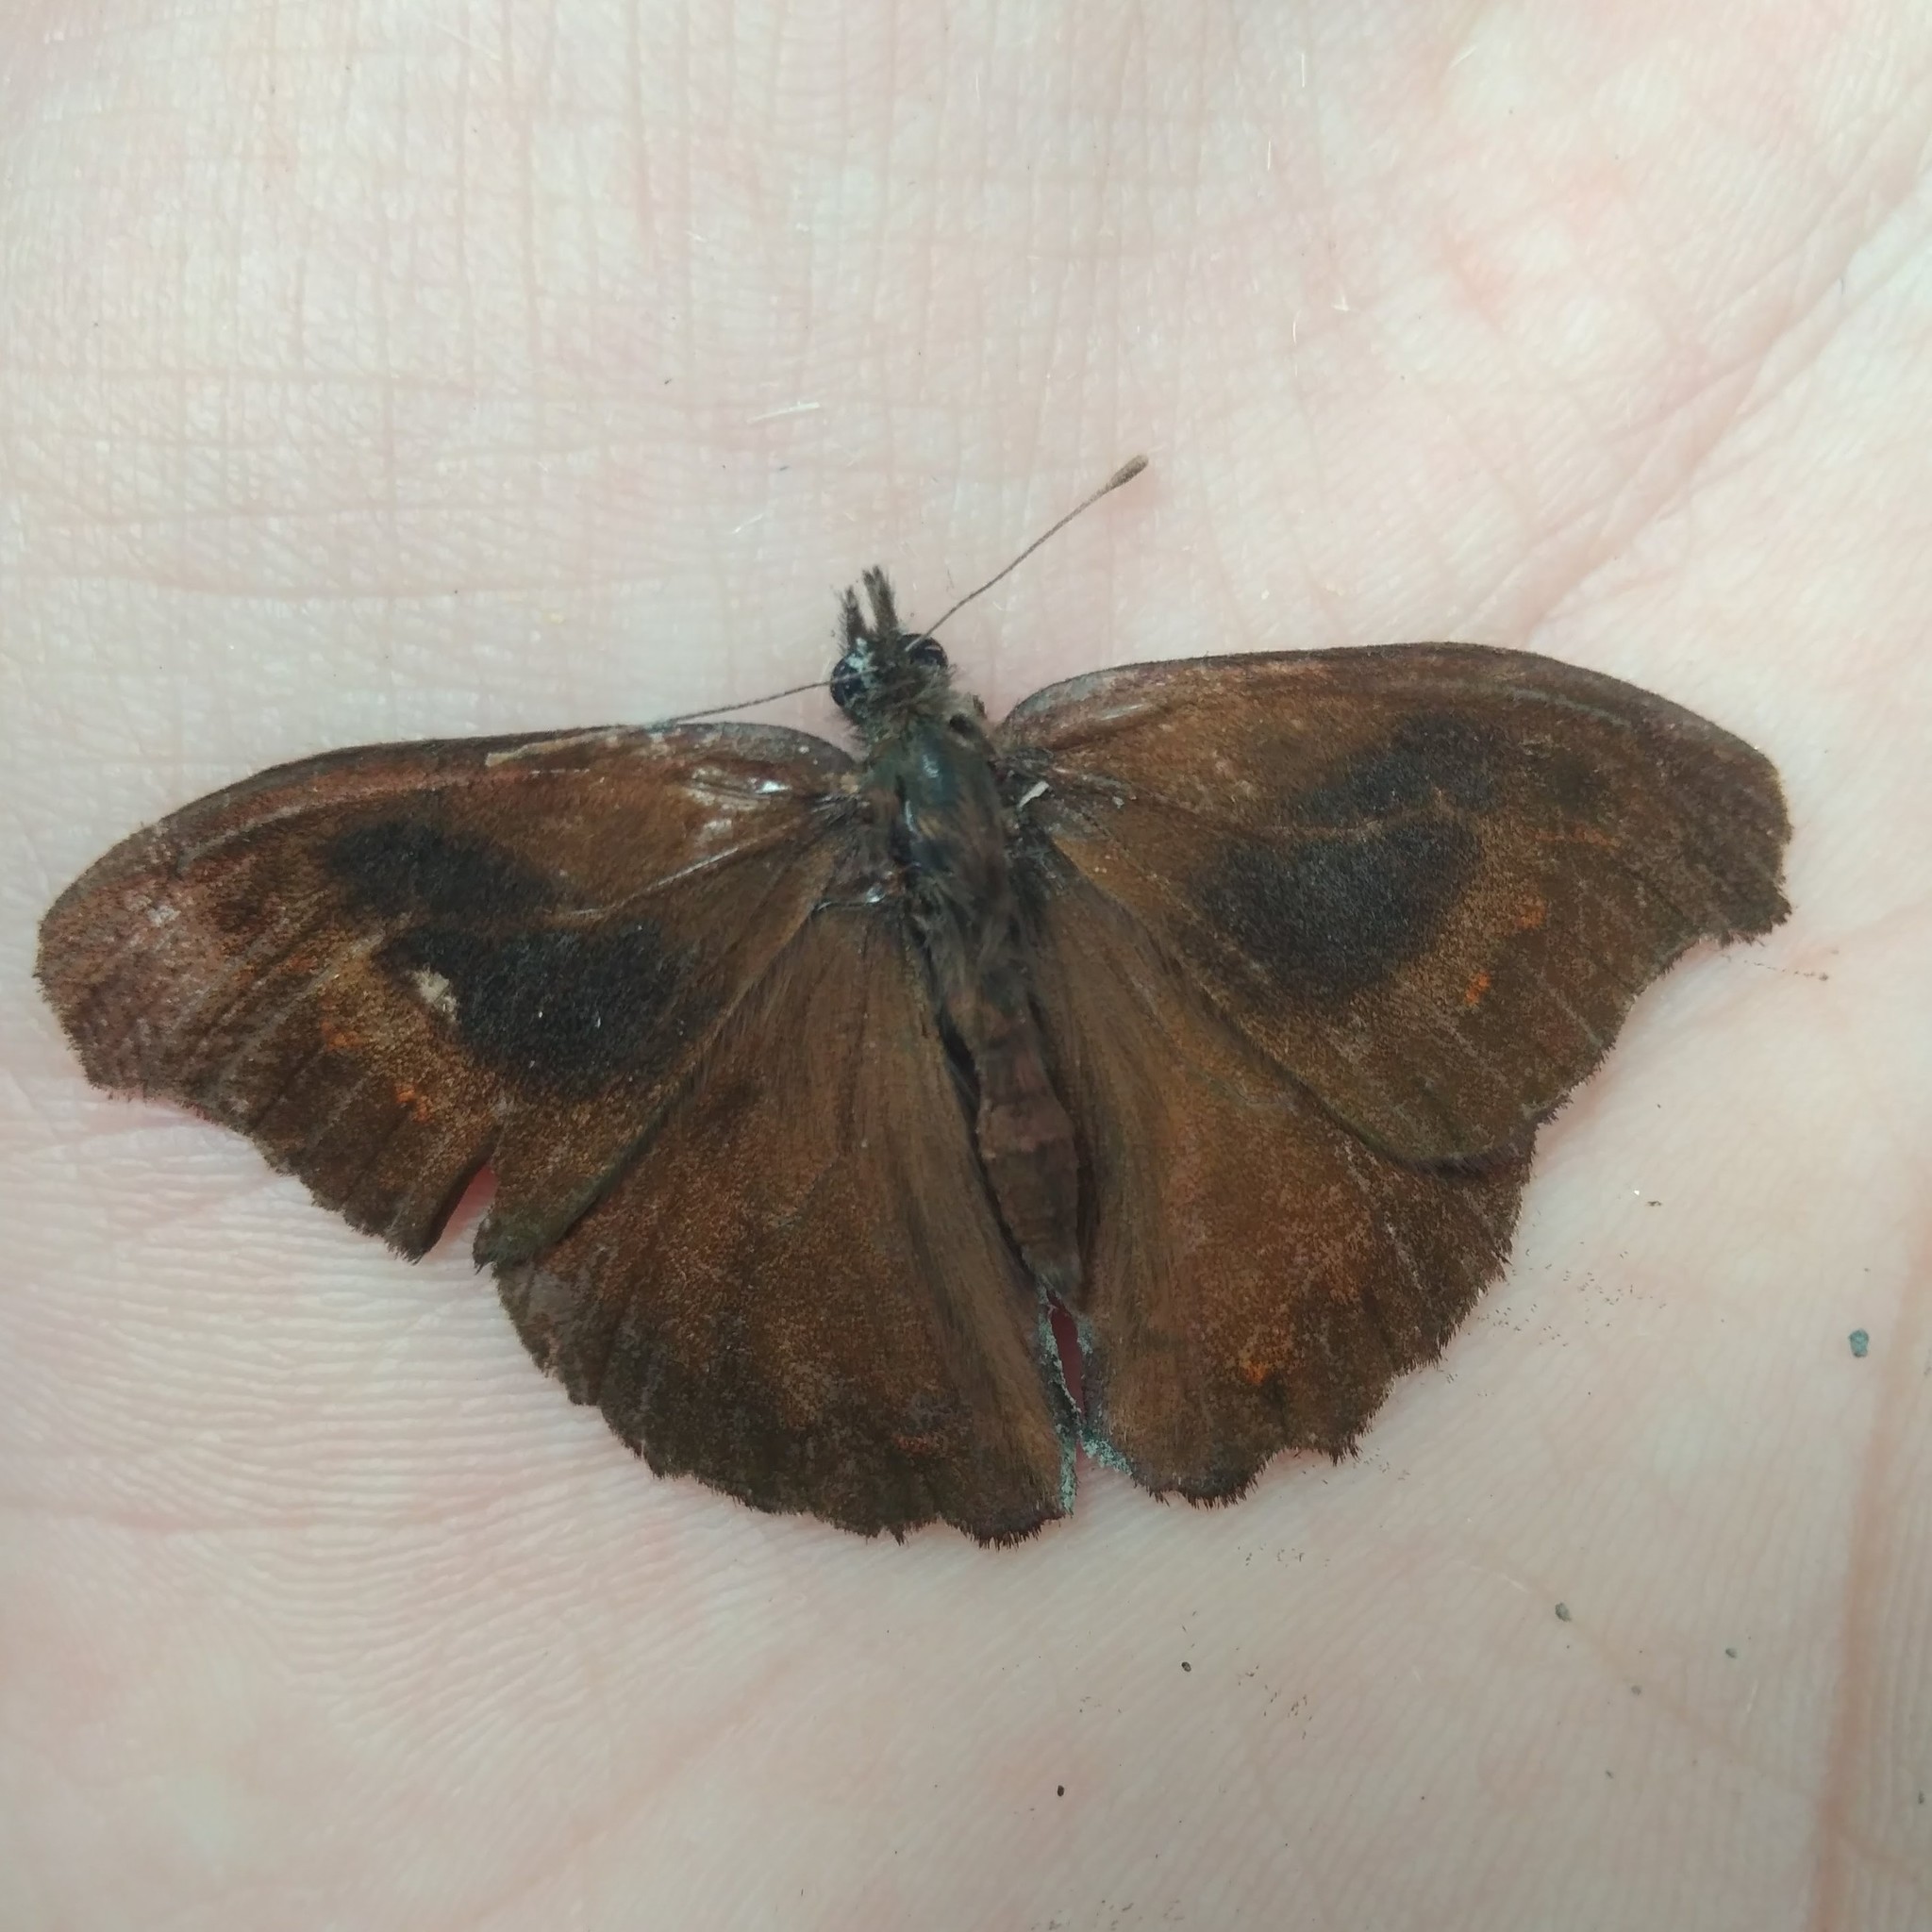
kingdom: Animalia
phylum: Arthropoda
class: Insecta
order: Lepidoptera
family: Nymphalidae
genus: Satyrus
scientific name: Satyrus nemyroides
